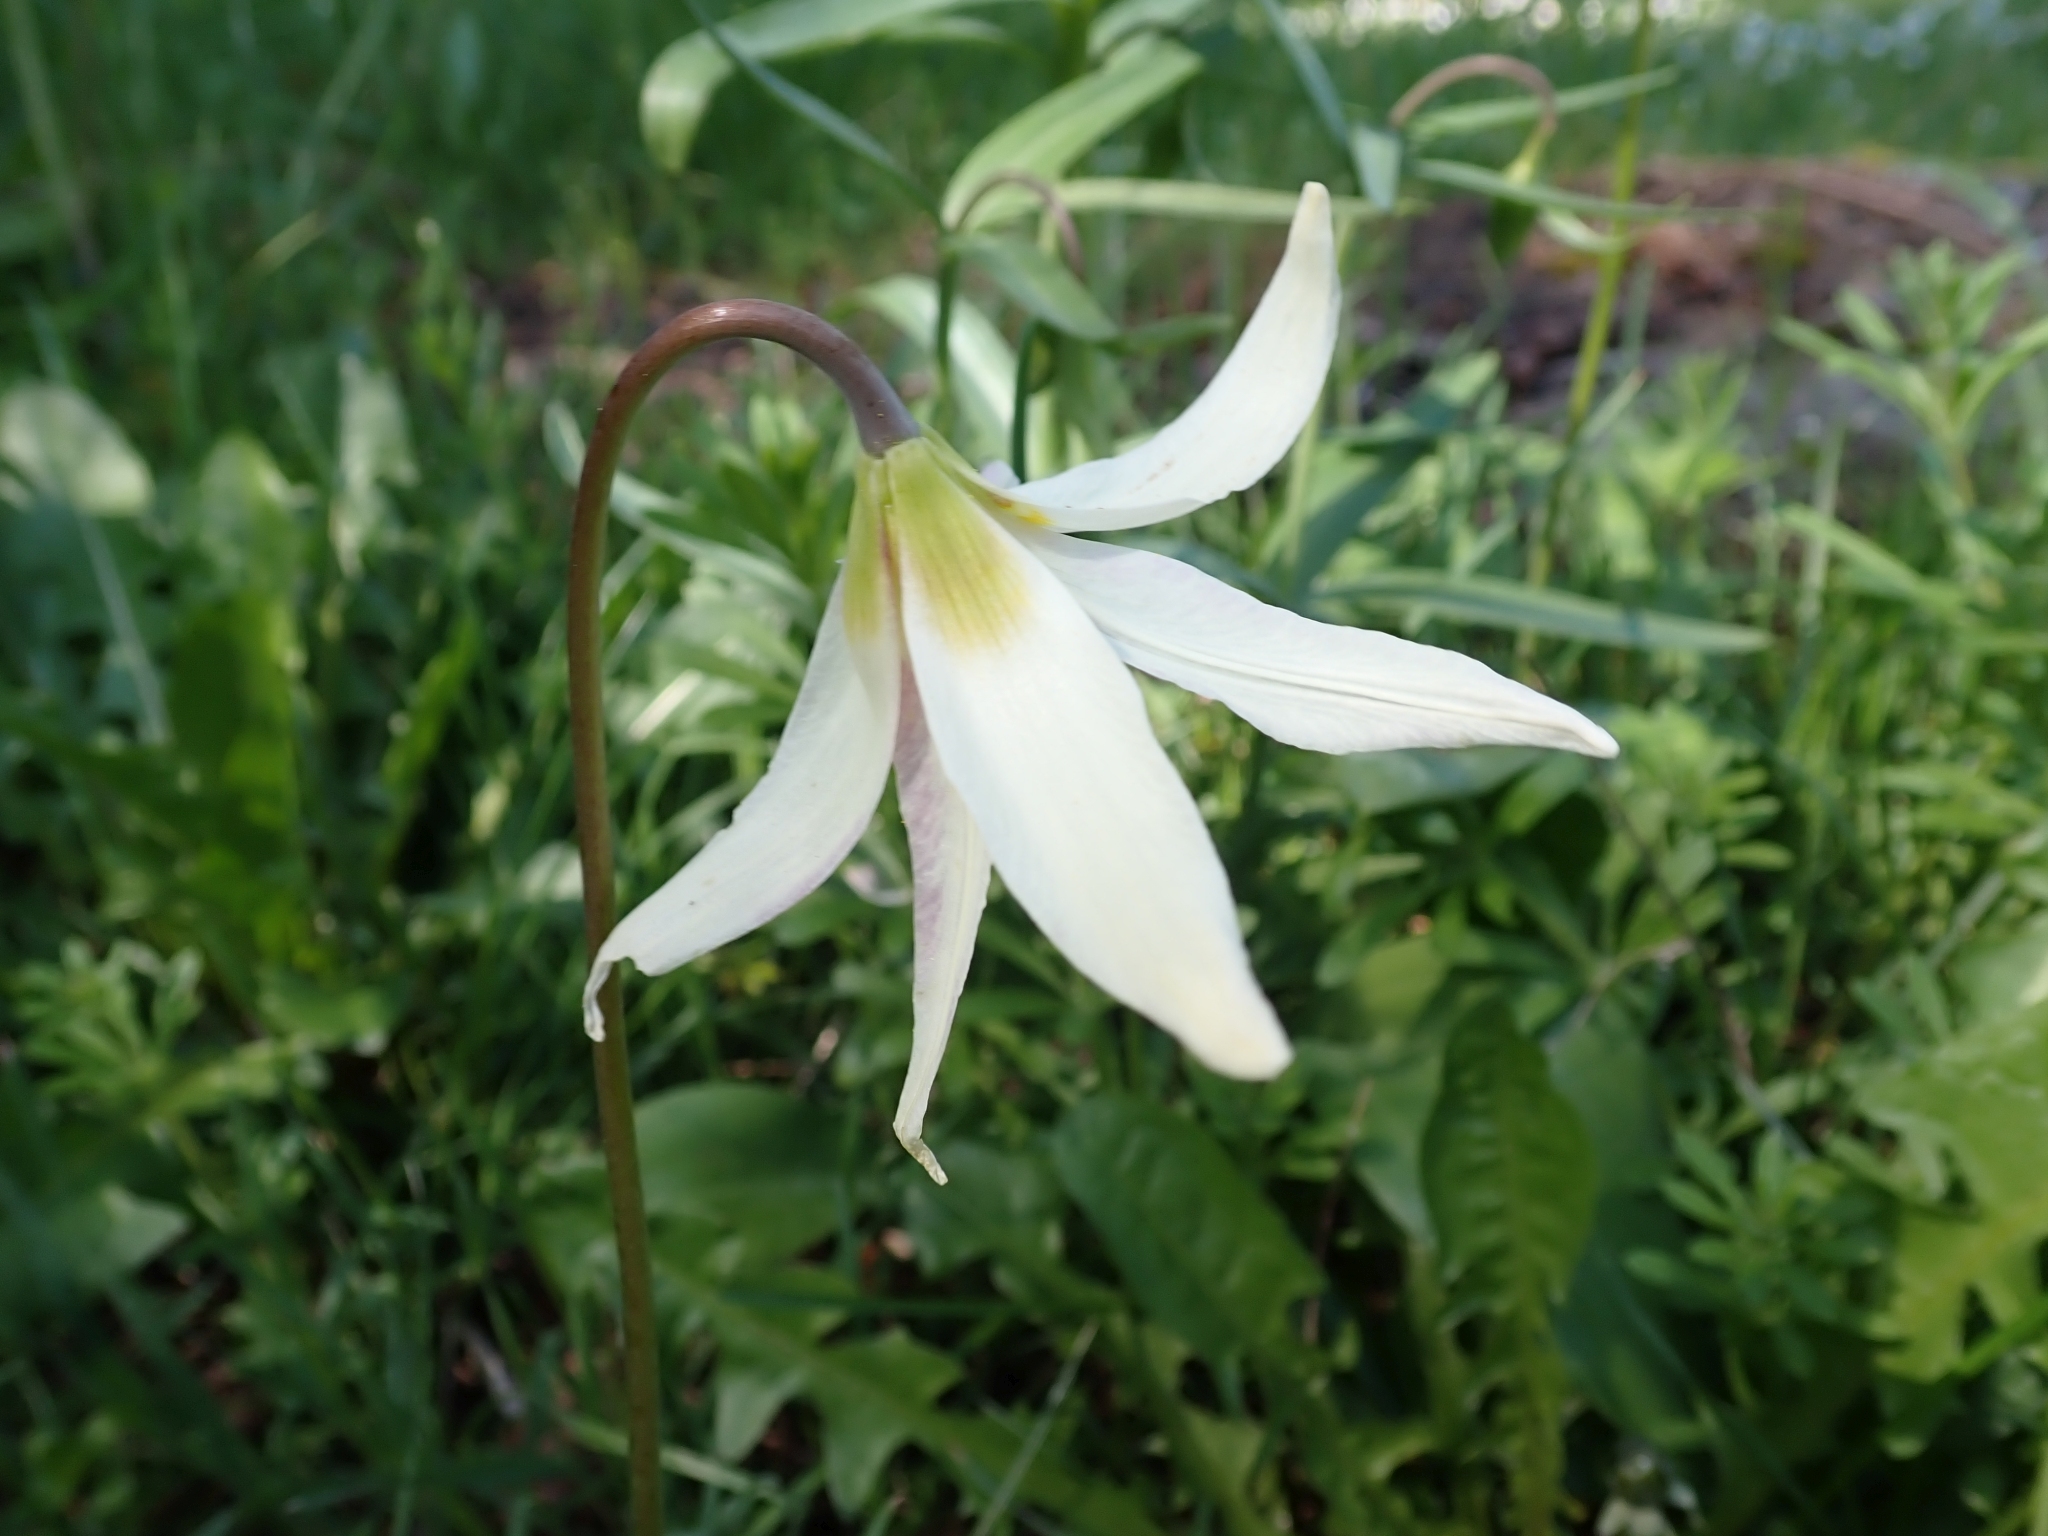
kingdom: Plantae
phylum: Tracheophyta
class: Liliopsida
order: Liliales
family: Liliaceae
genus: Erythronium
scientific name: Erythronium oregonum
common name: Giant adder's-tongue
